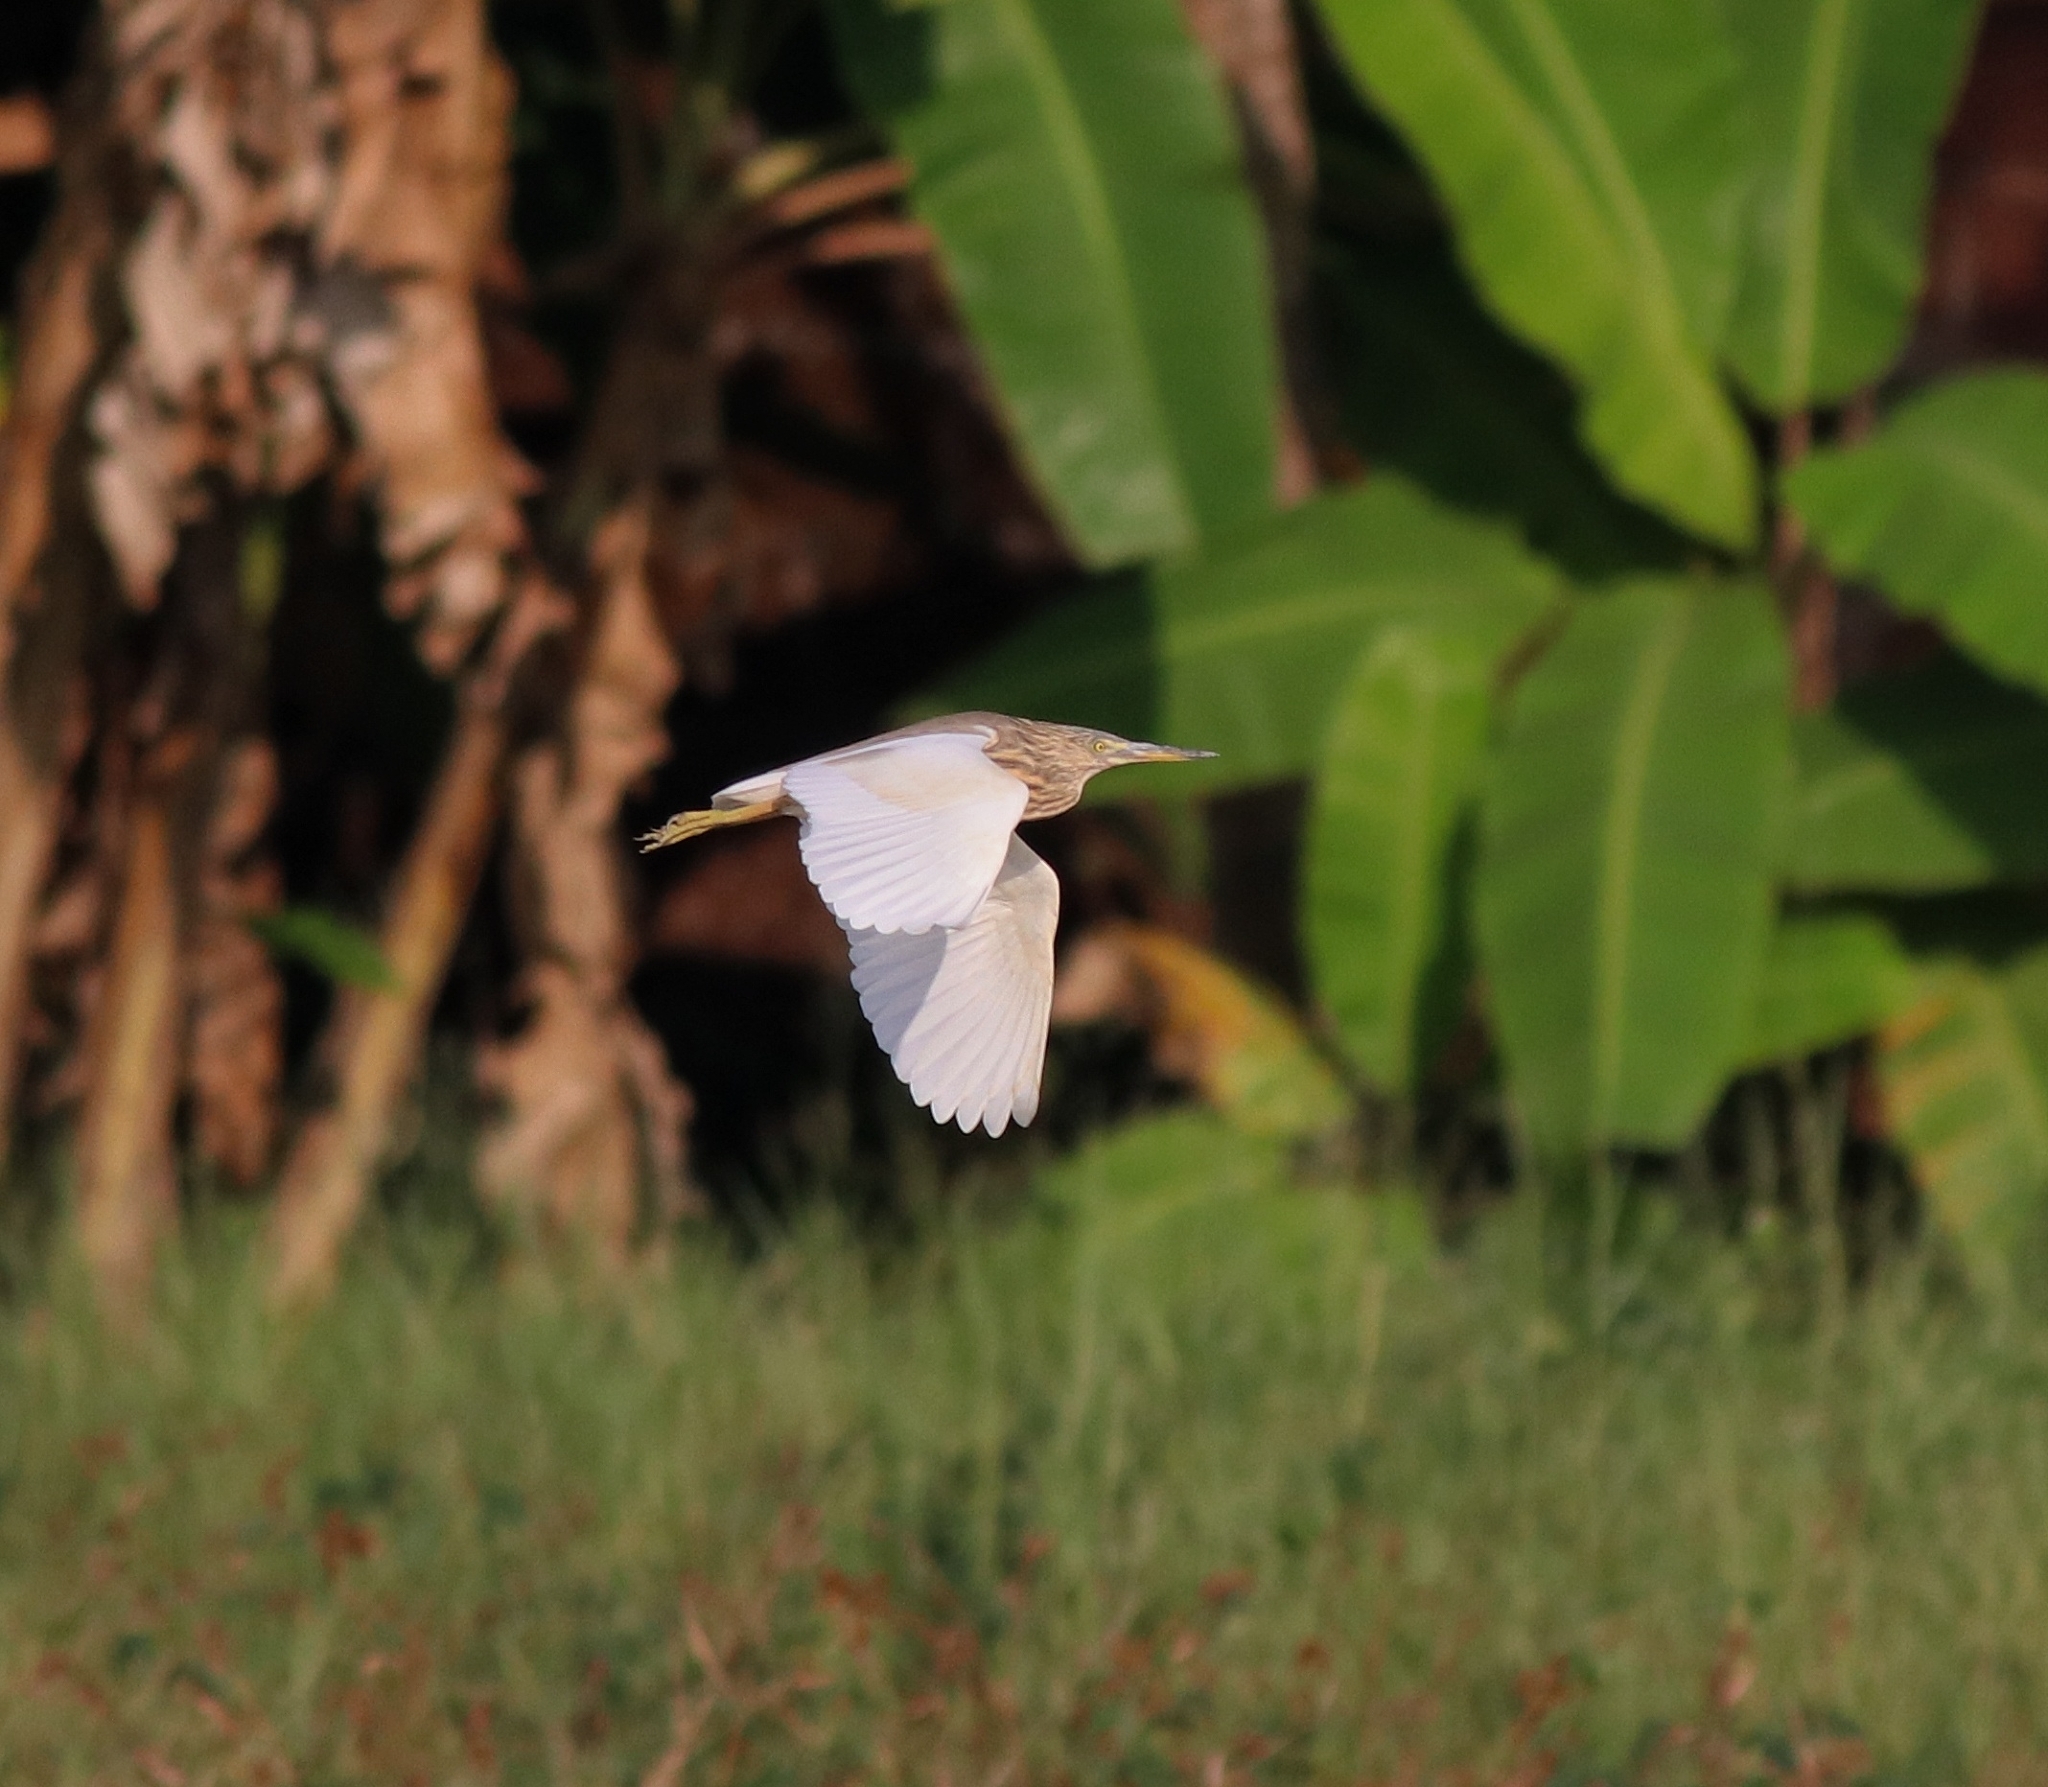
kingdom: Animalia
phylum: Chordata
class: Aves
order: Pelecaniformes
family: Ardeidae
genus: Ardeola
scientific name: Ardeola grayii
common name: Indian pond heron
